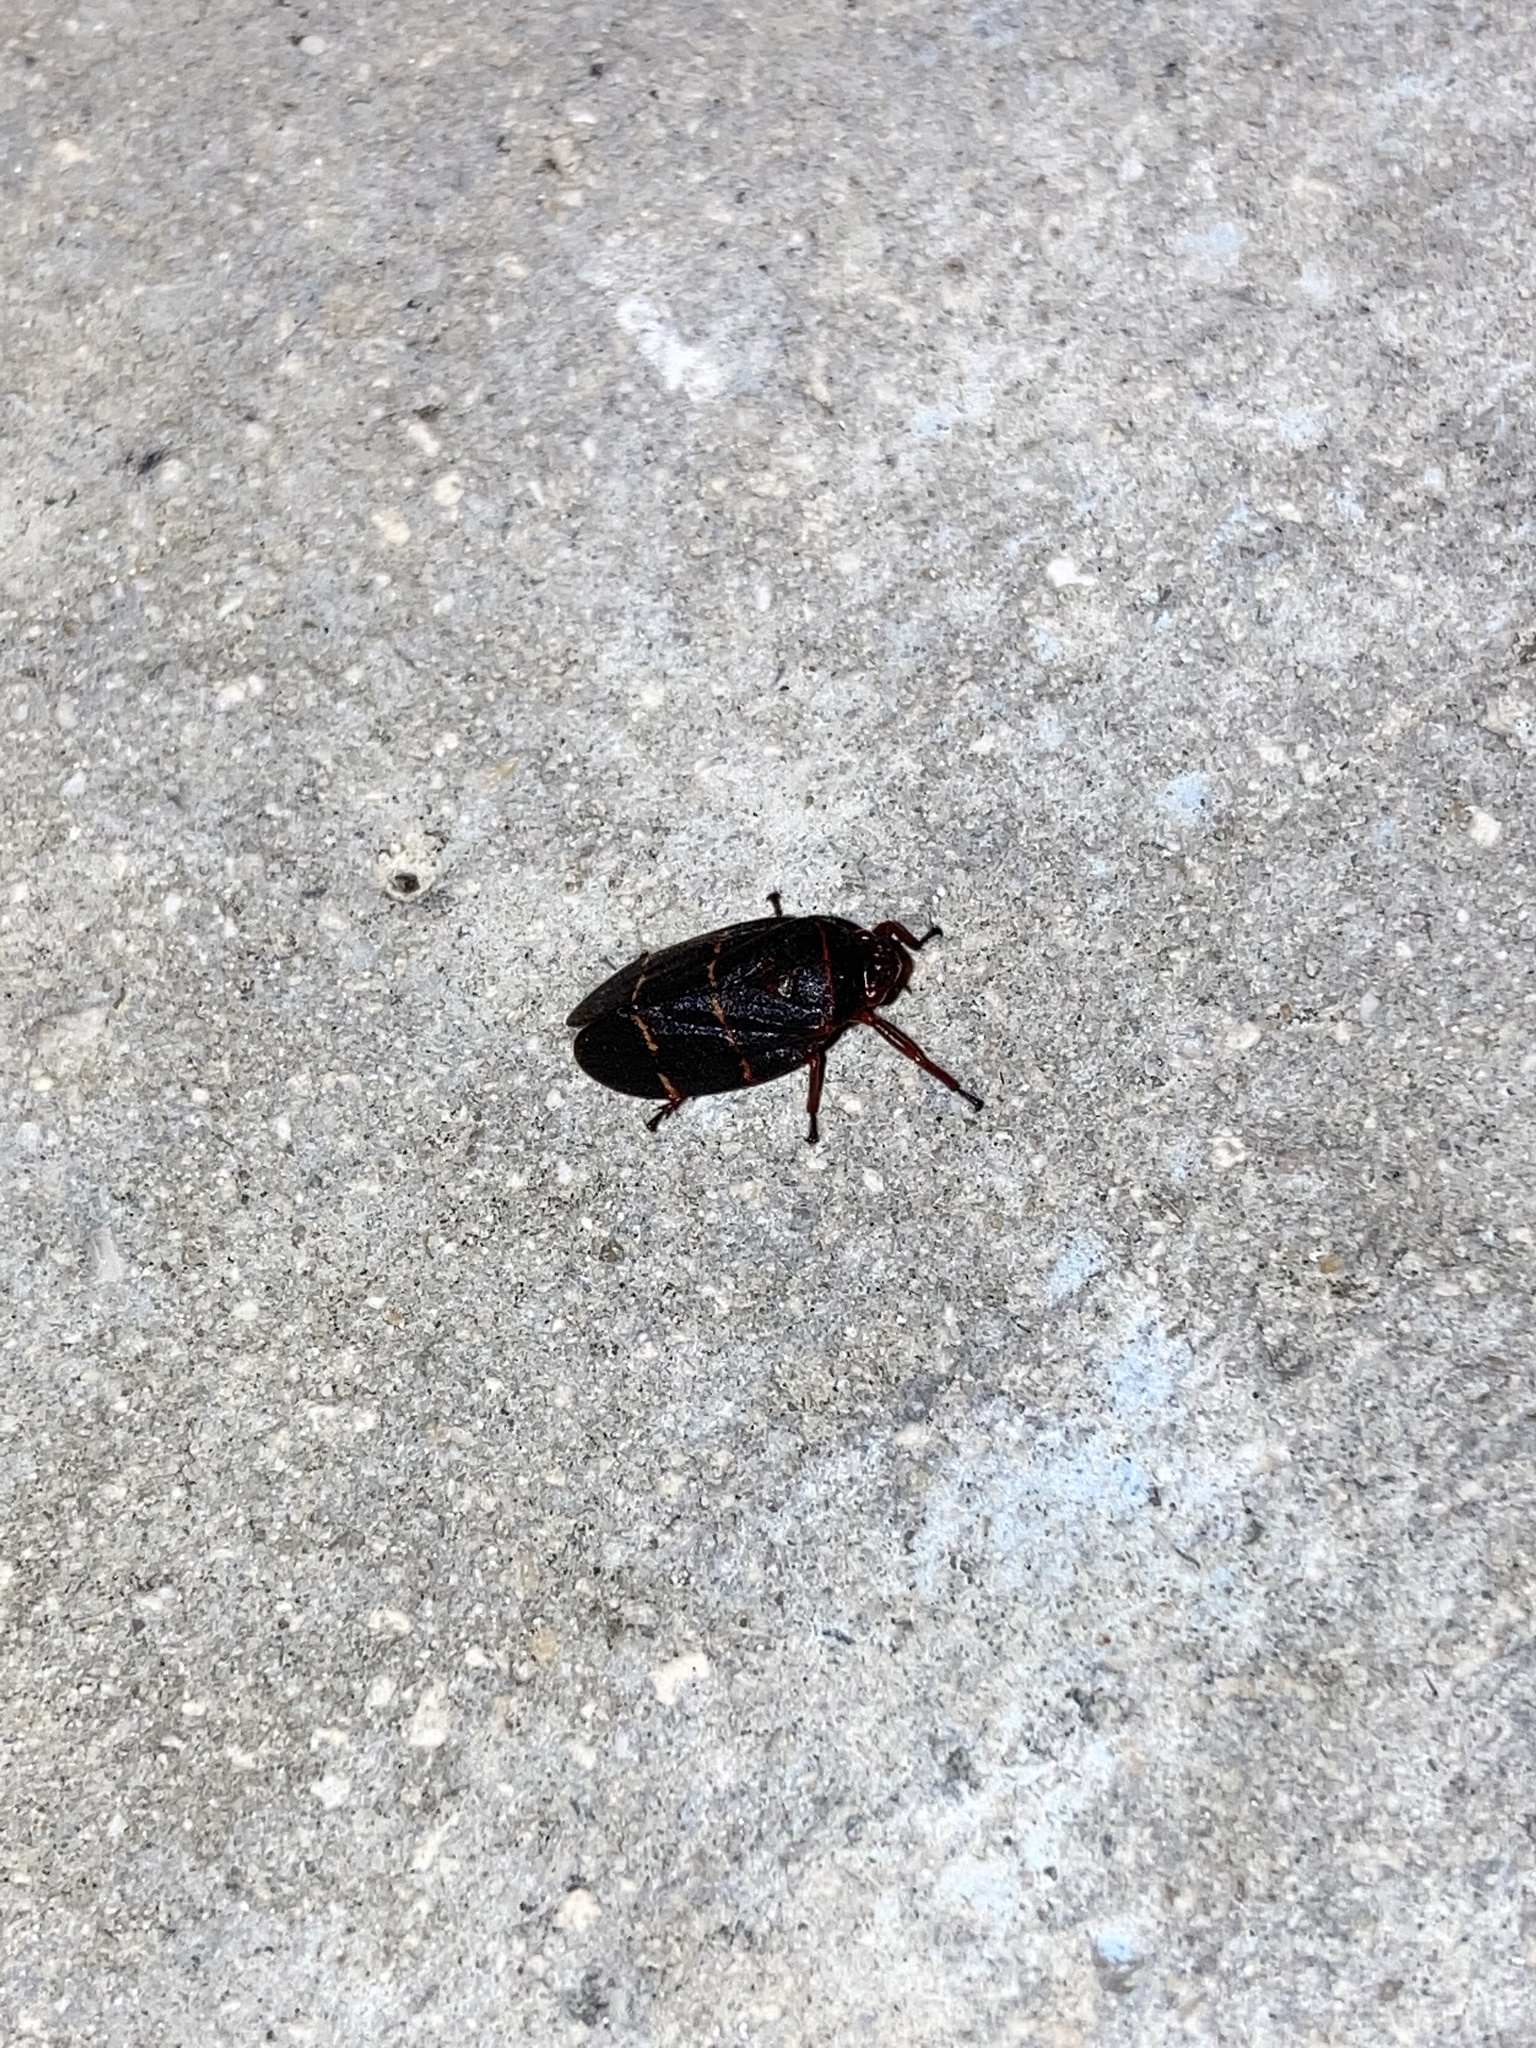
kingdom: Animalia
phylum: Arthropoda
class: Insecta
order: Hemiptera
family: Cercopidae
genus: Prosapia
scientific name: Prosapia bicincta
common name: Twolined spittlebug
